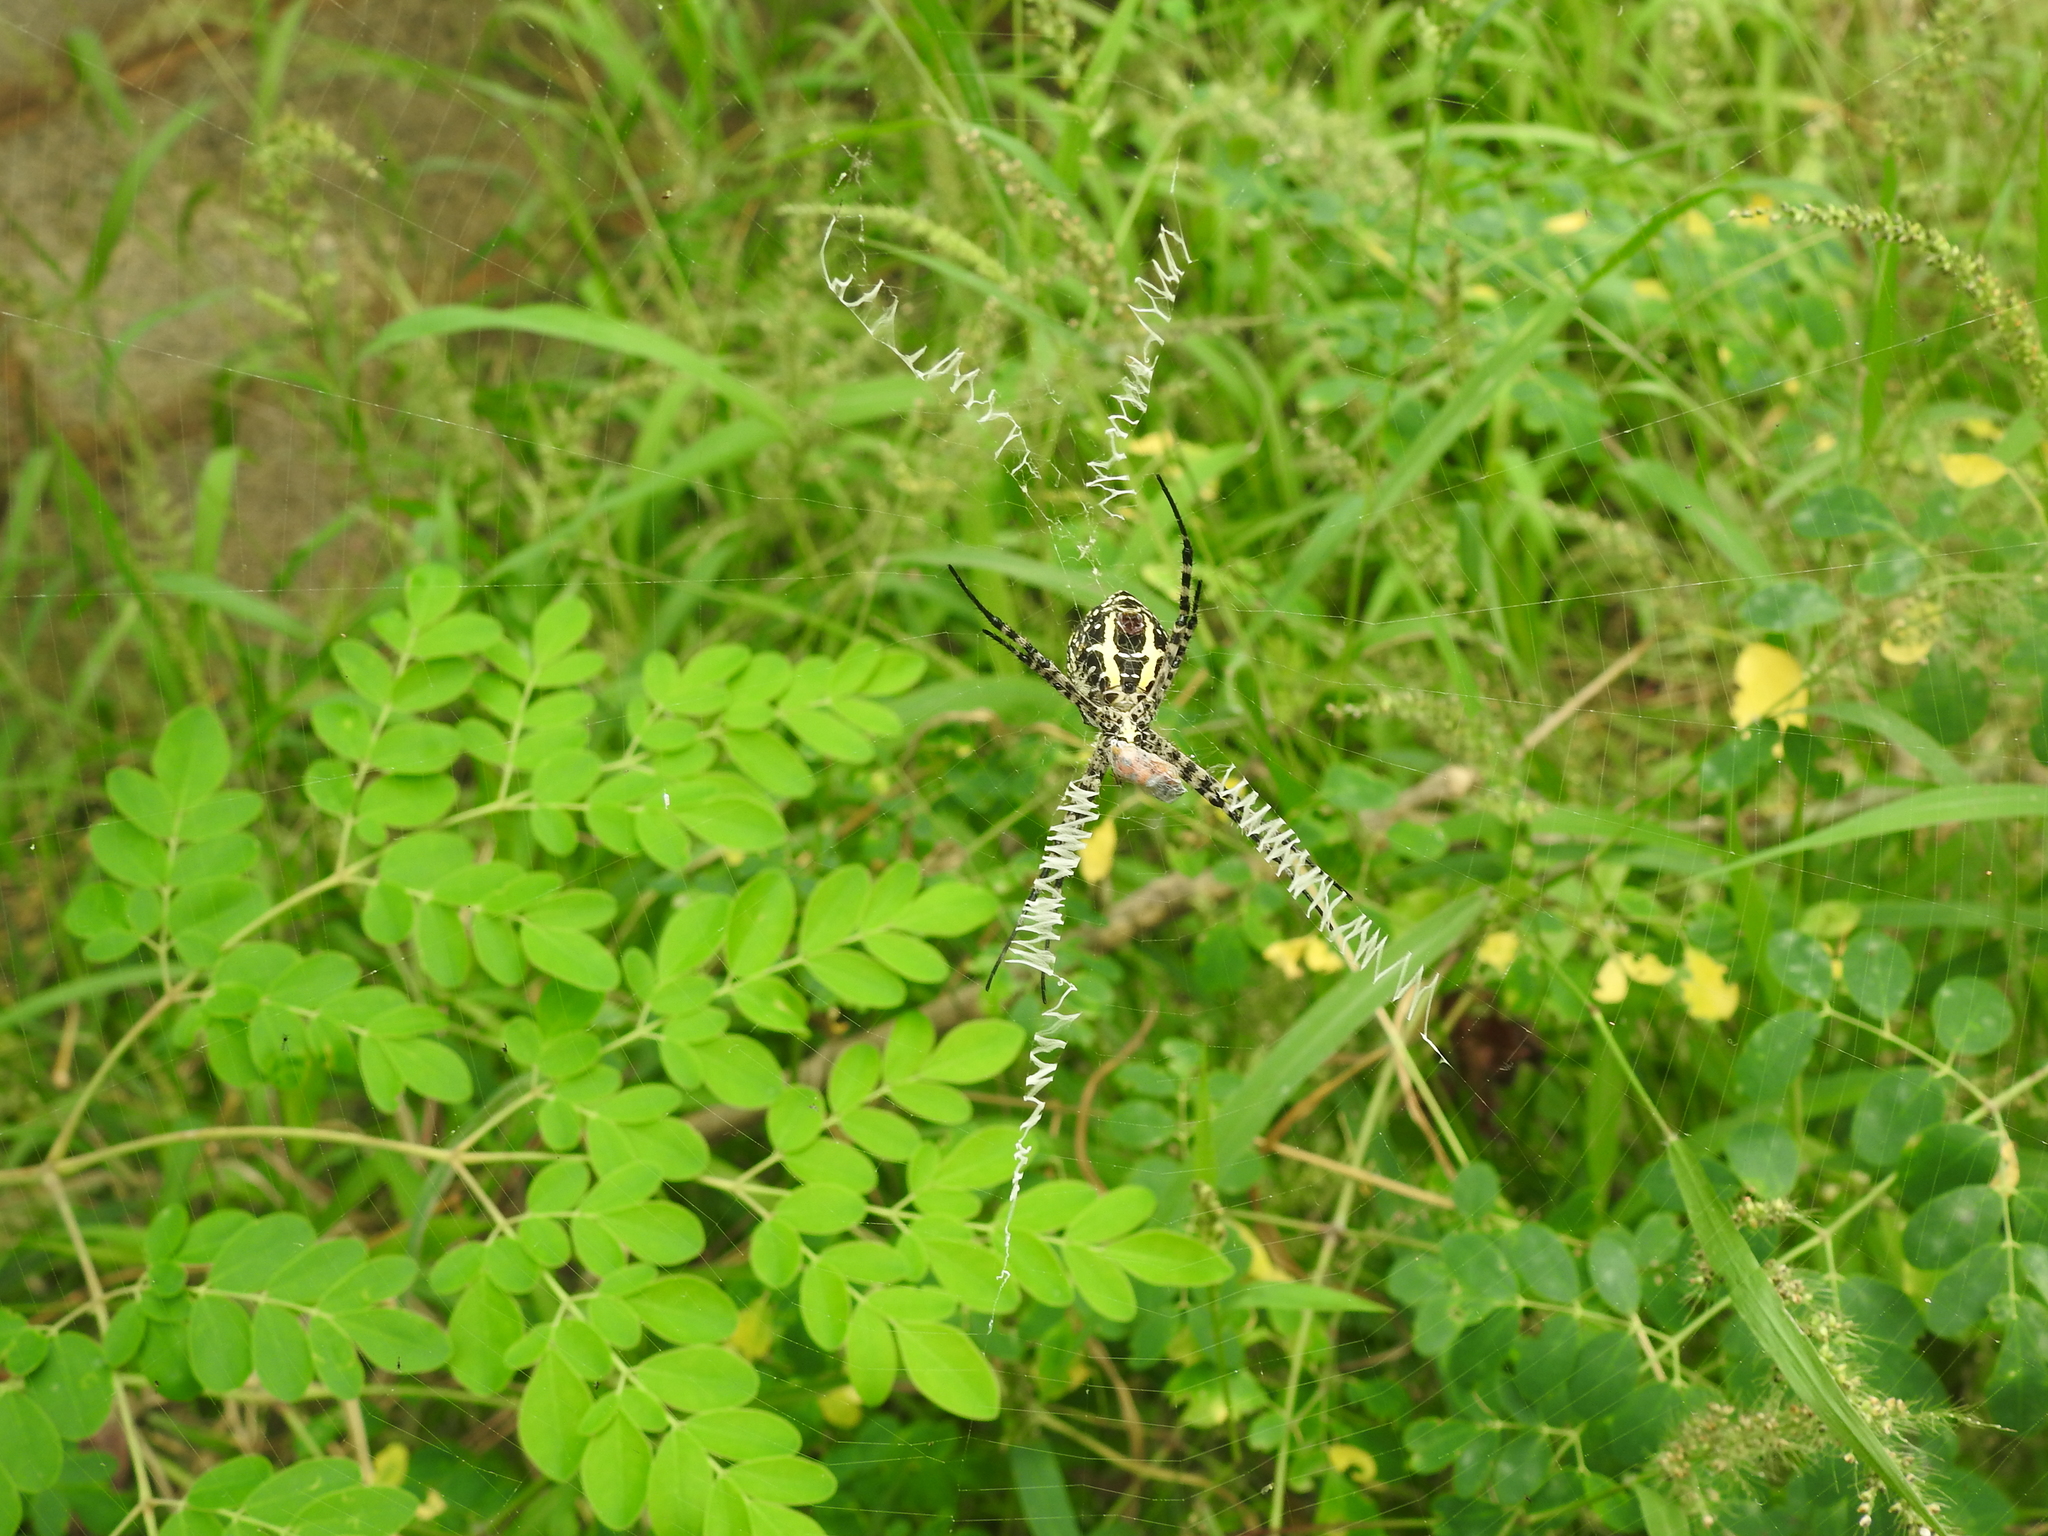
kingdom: Animalia
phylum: Arthropoda
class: Arachnida
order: Araneae
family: Araneidae
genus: Argiope
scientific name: Argiope aemula
